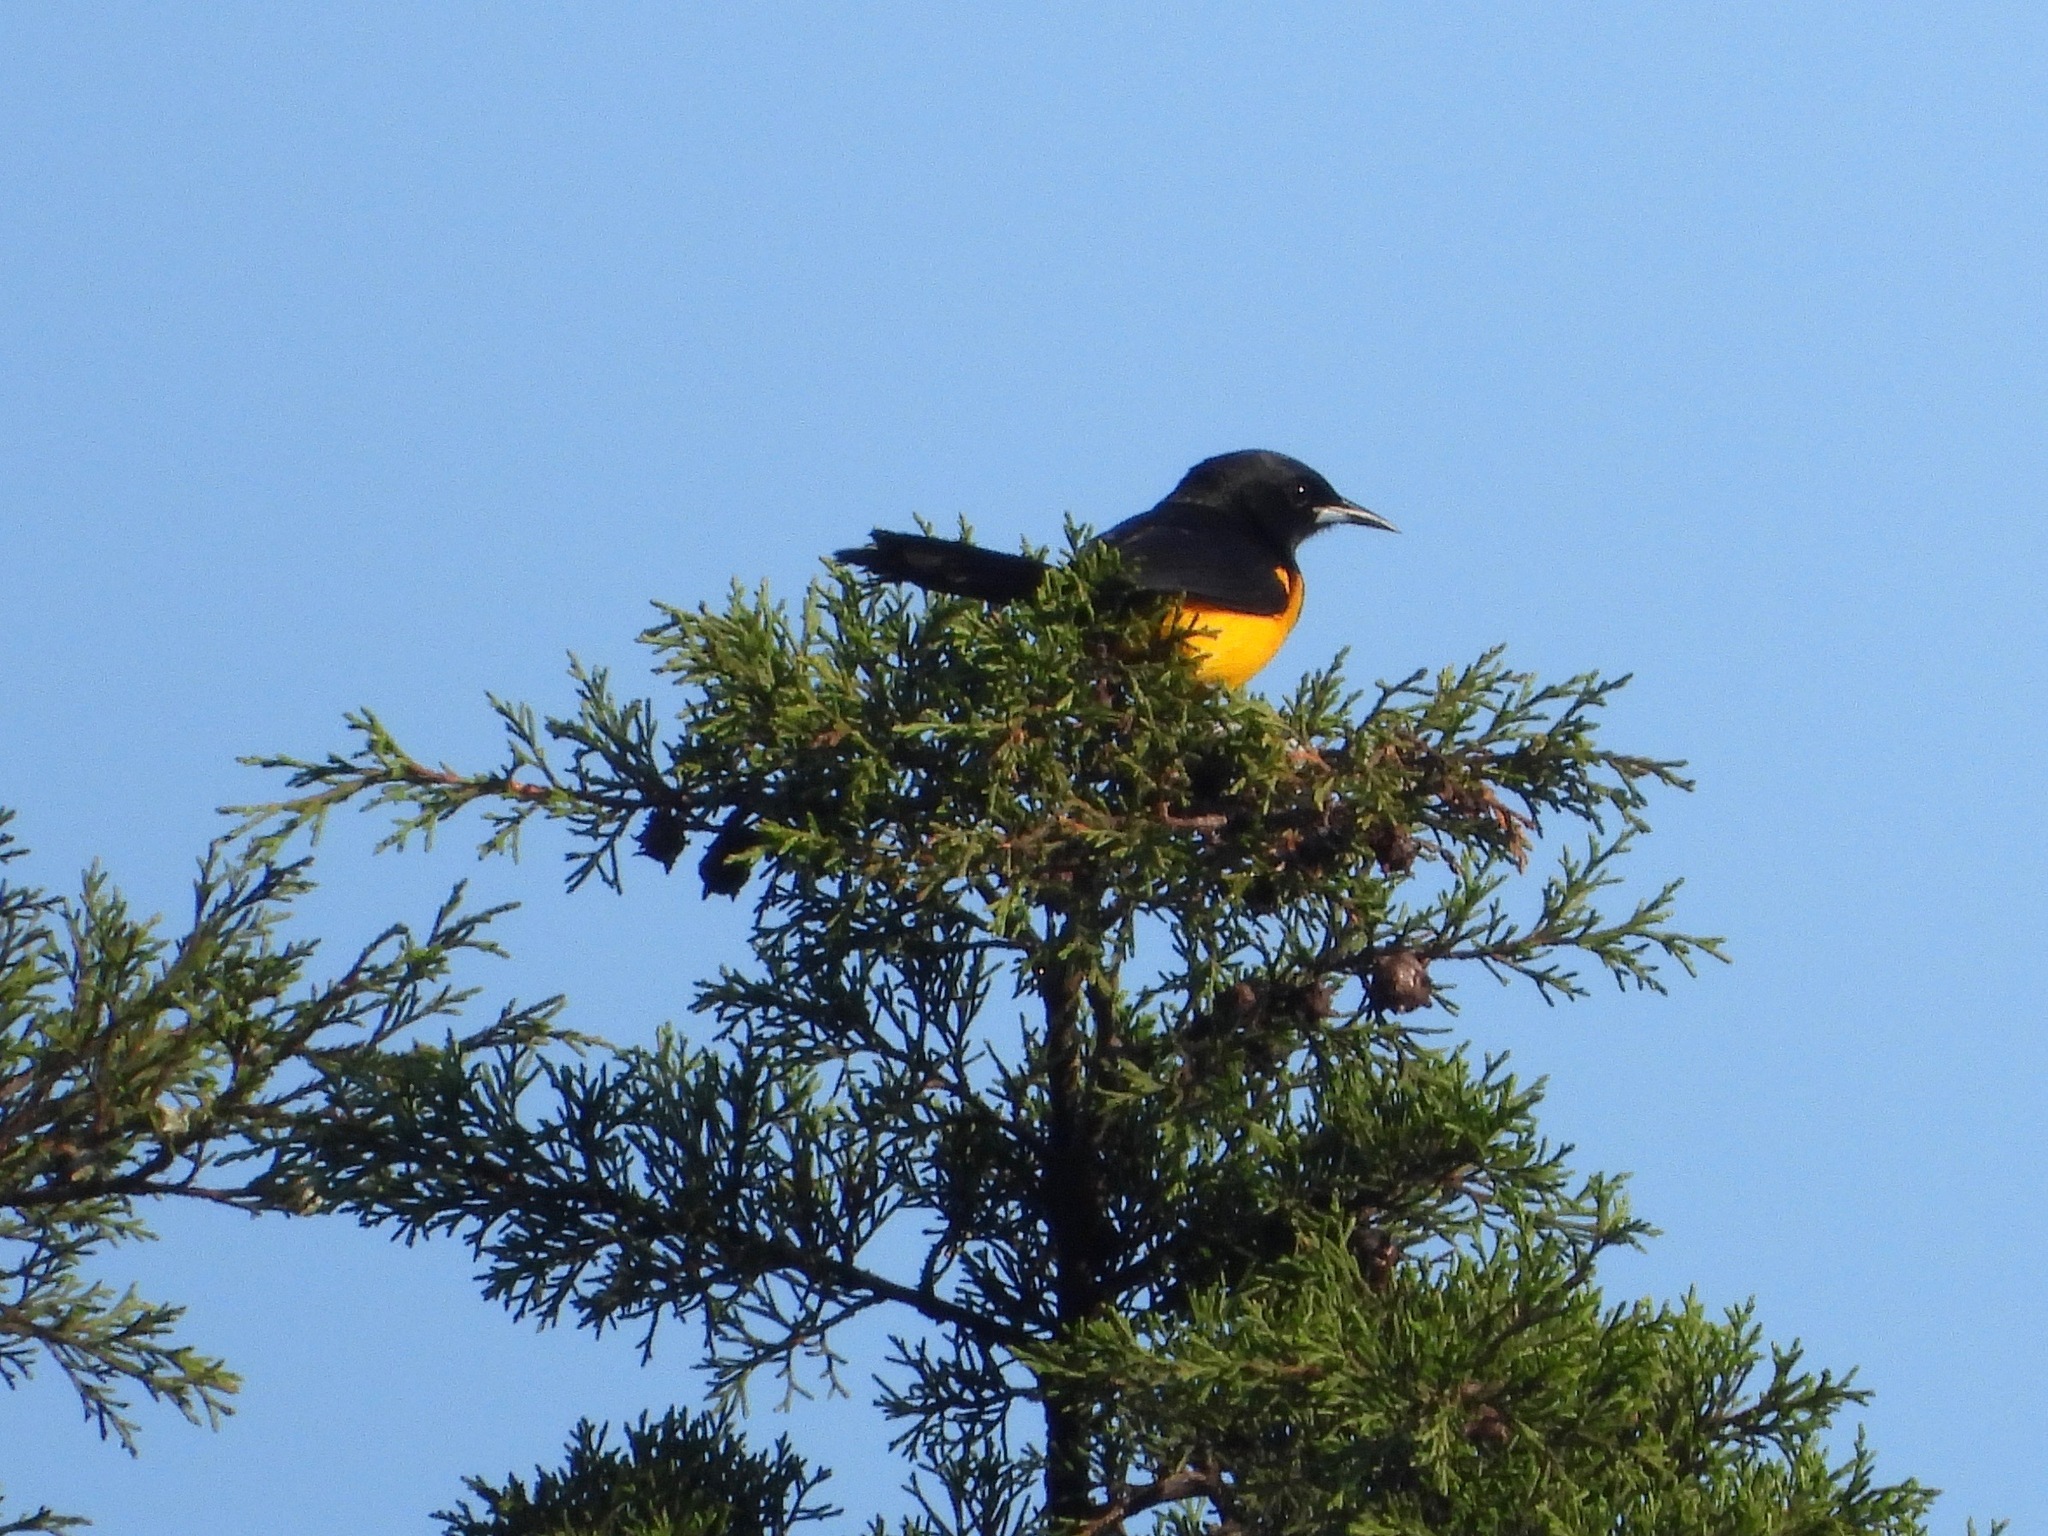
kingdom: Animalia
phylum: Chordata
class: Aves
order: Passeriformes
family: Icteridae
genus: Icterus
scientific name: Icterus wagleri
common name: Black-vented oriole
